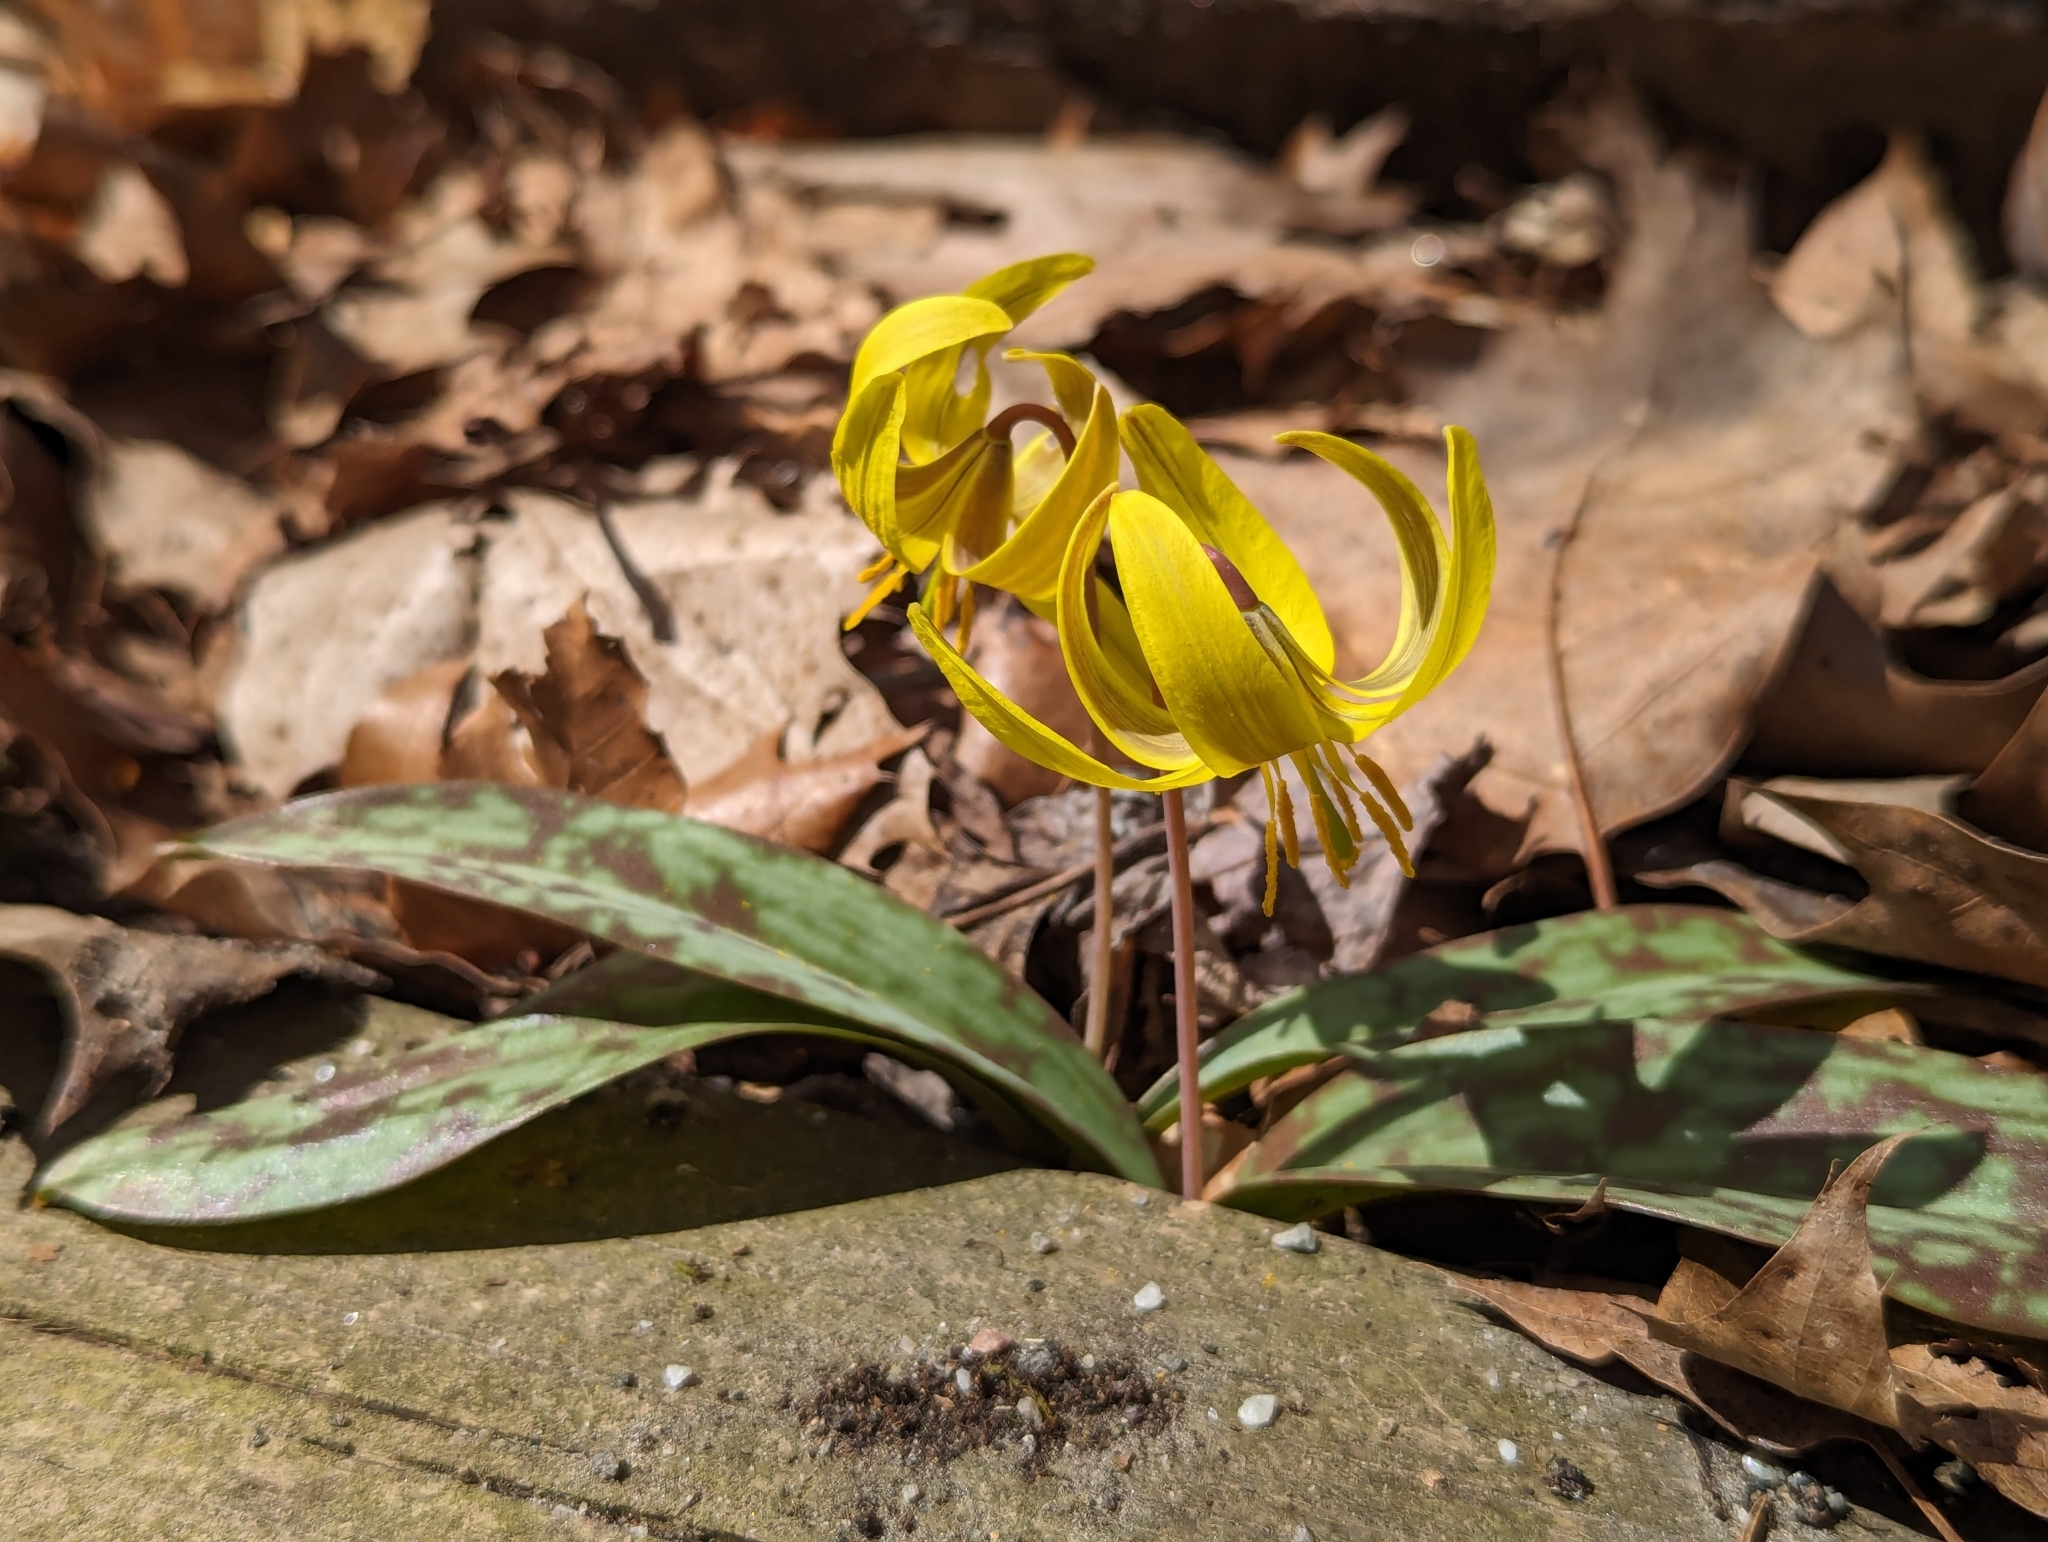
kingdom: Plantae
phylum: Tracheophyta
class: Liliopsida
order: Liliales
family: Liliaceae
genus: Erythronium
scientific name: Erythronium americanum
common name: Yellow adder's-tongue
